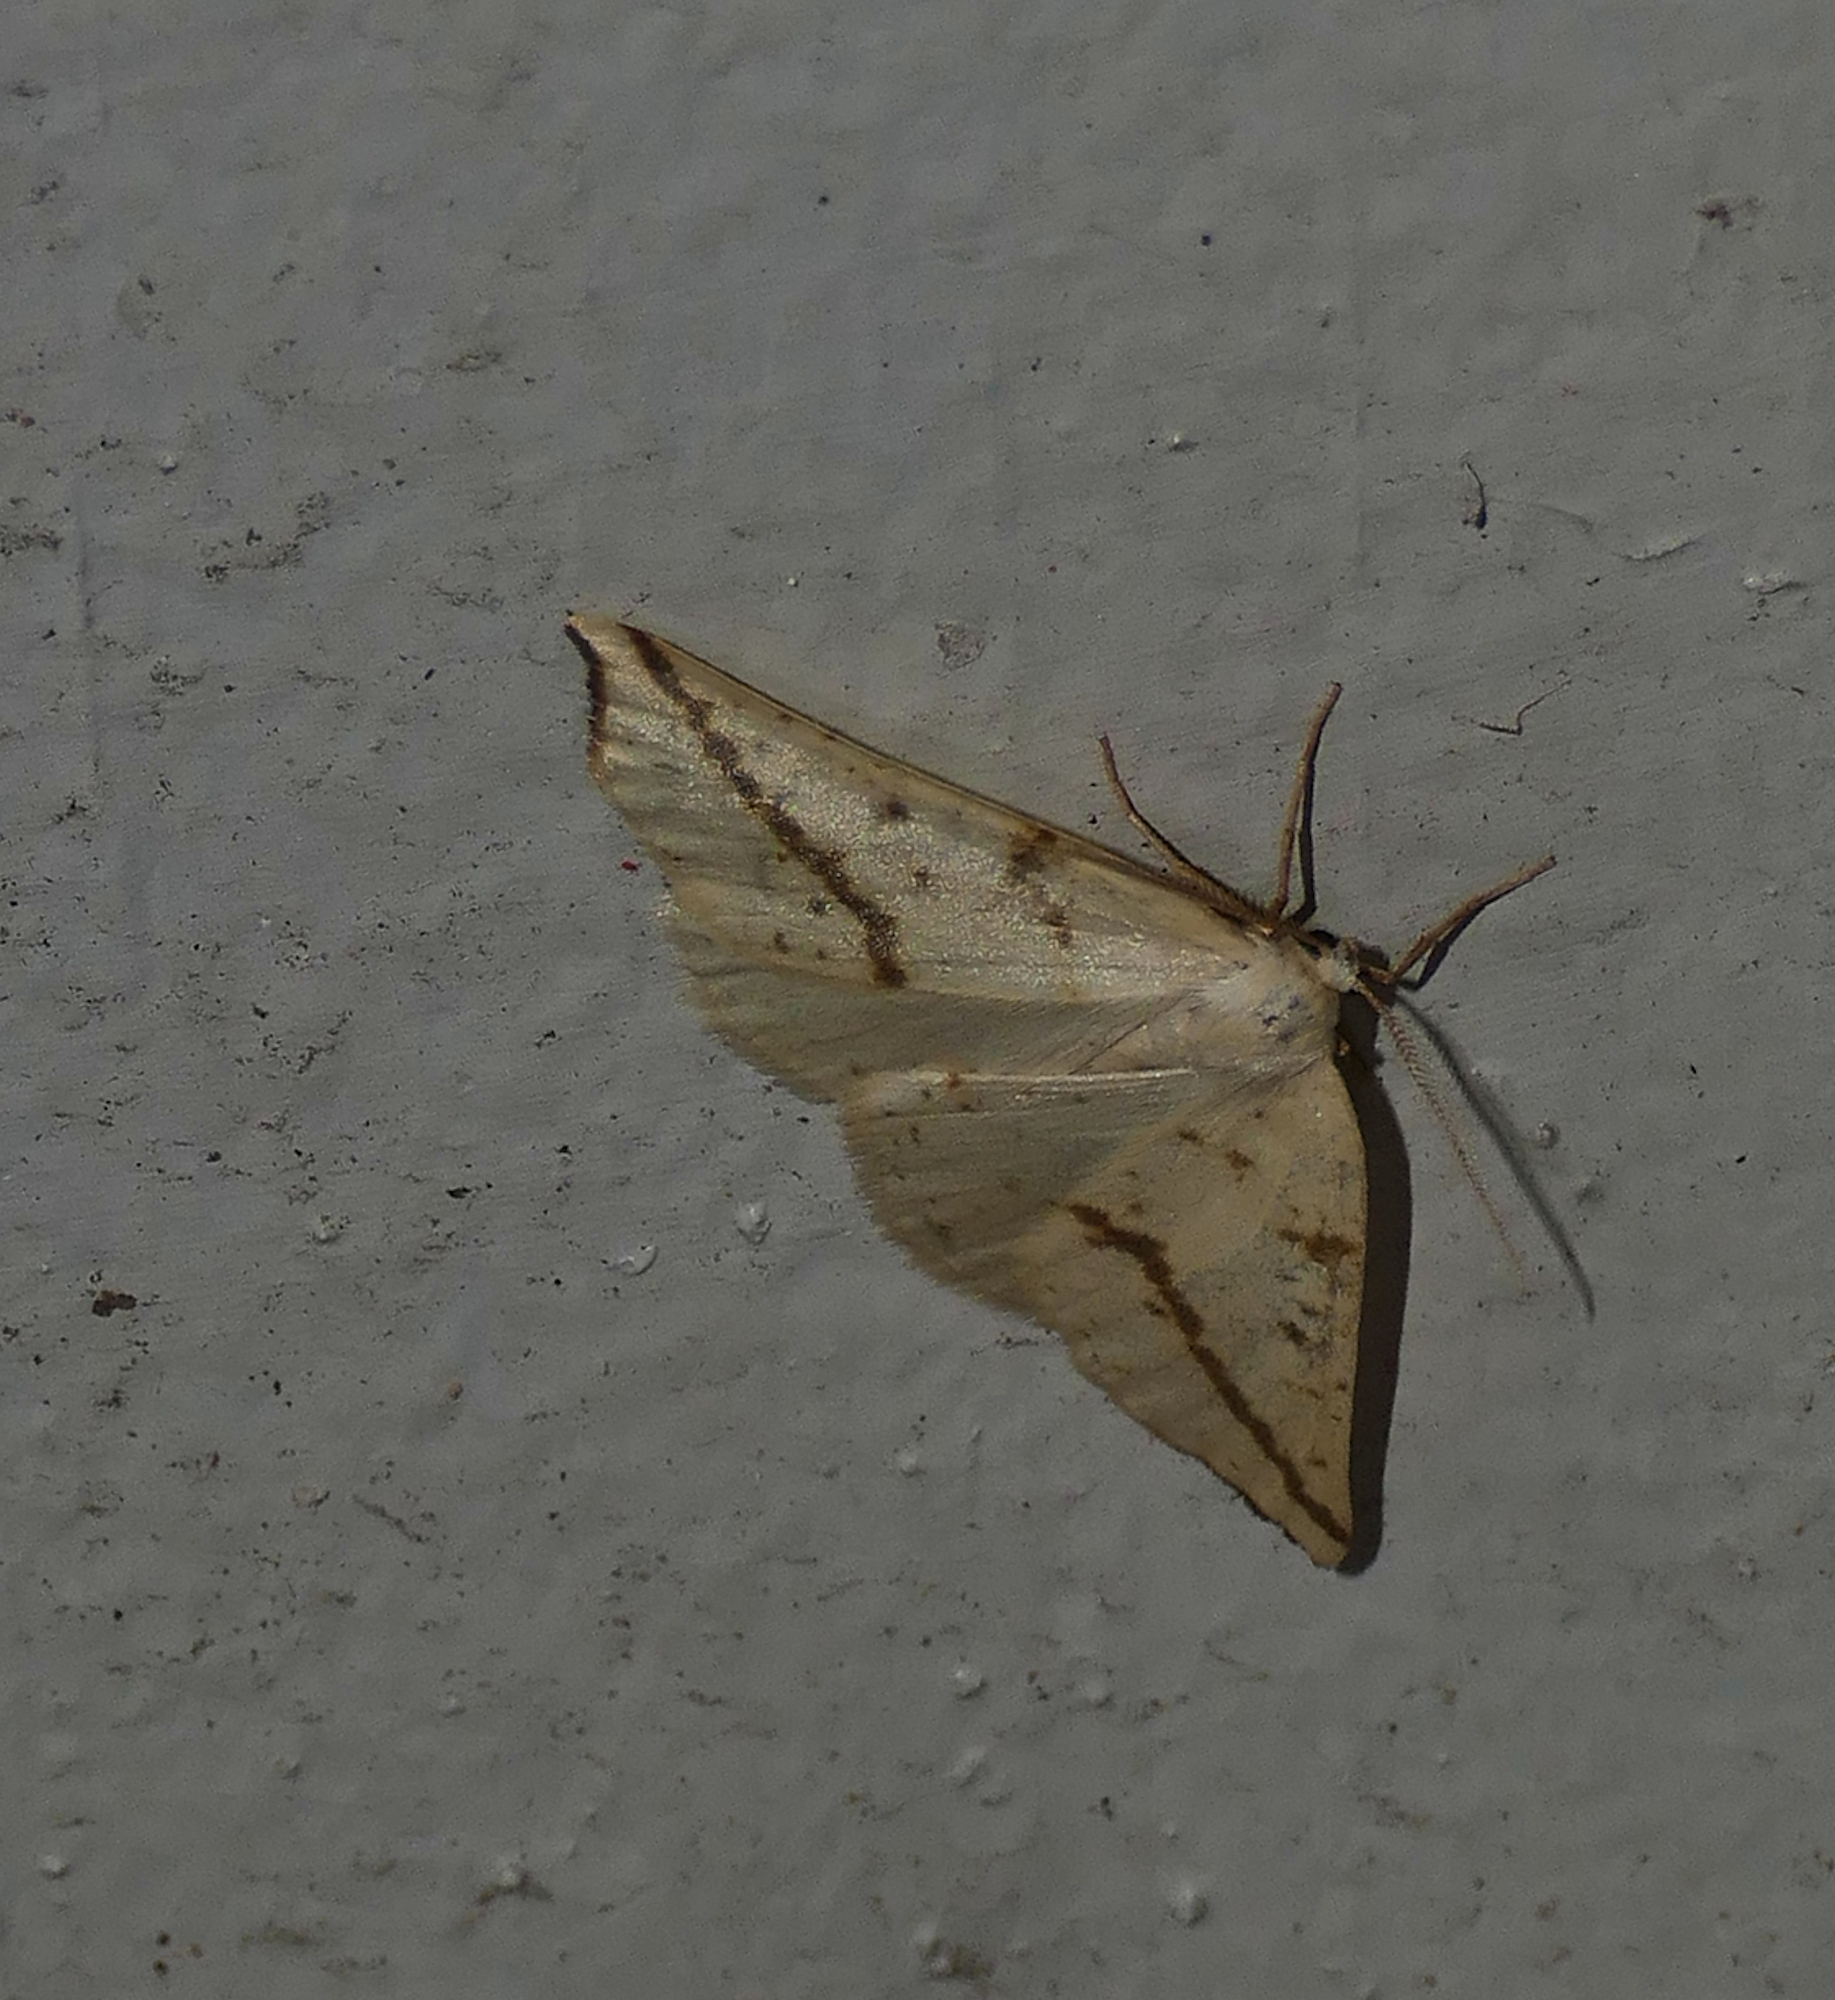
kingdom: Animalia
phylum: Arthropoda
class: Insecta
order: Lepidoptera
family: Geometridae
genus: Neoterpes
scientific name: Neoterpes ephelidaria
